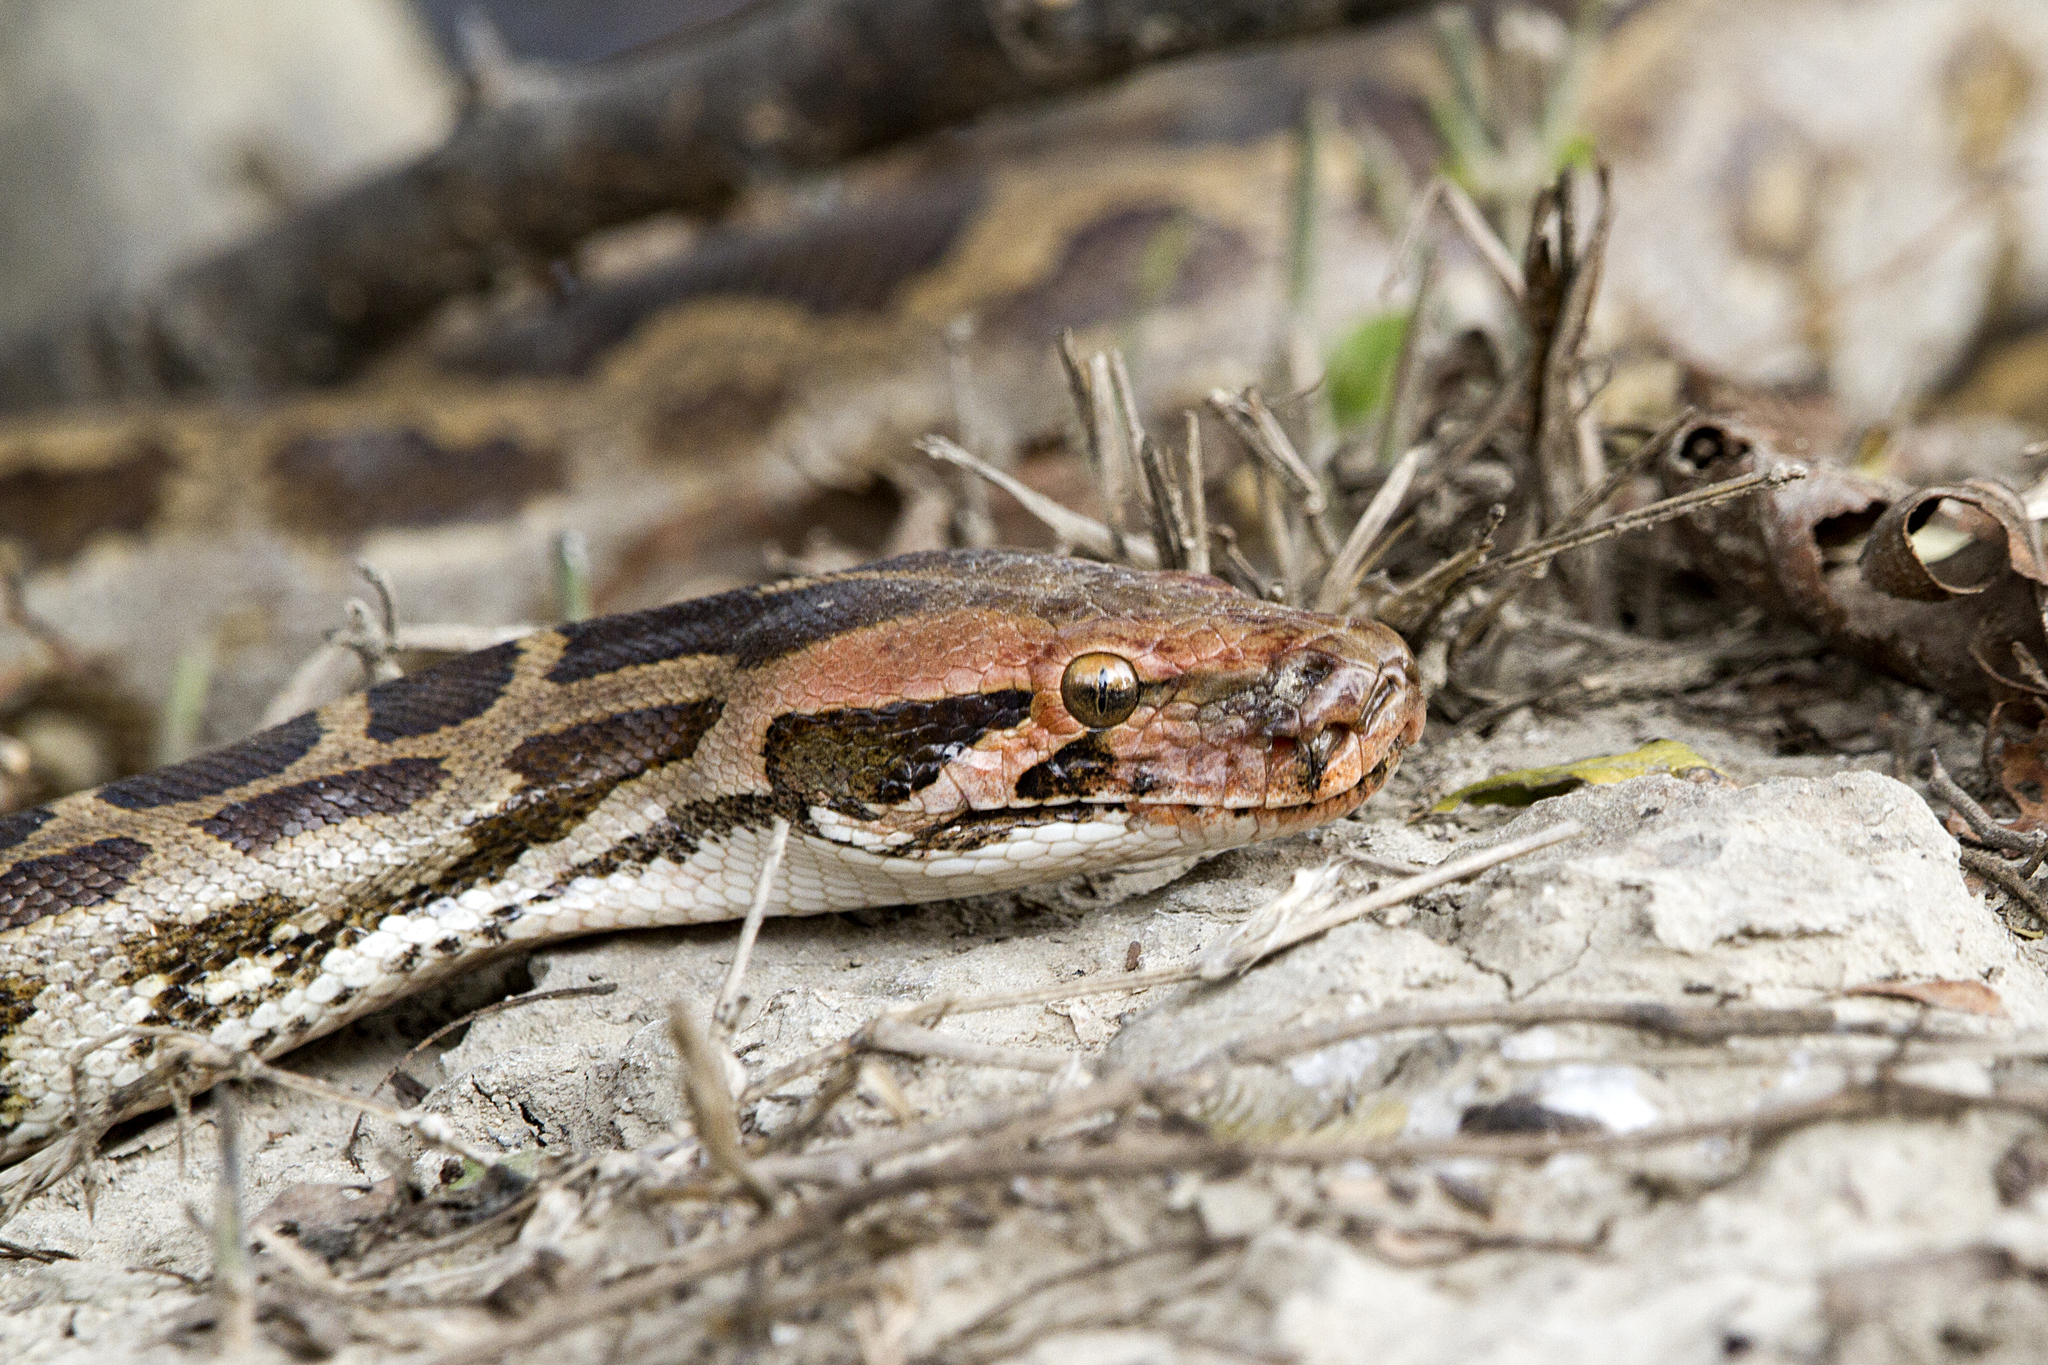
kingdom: Animalia
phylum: Chordata
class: Squamata
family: Pythonidae
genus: Python
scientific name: Python molurus
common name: Indian rock python
